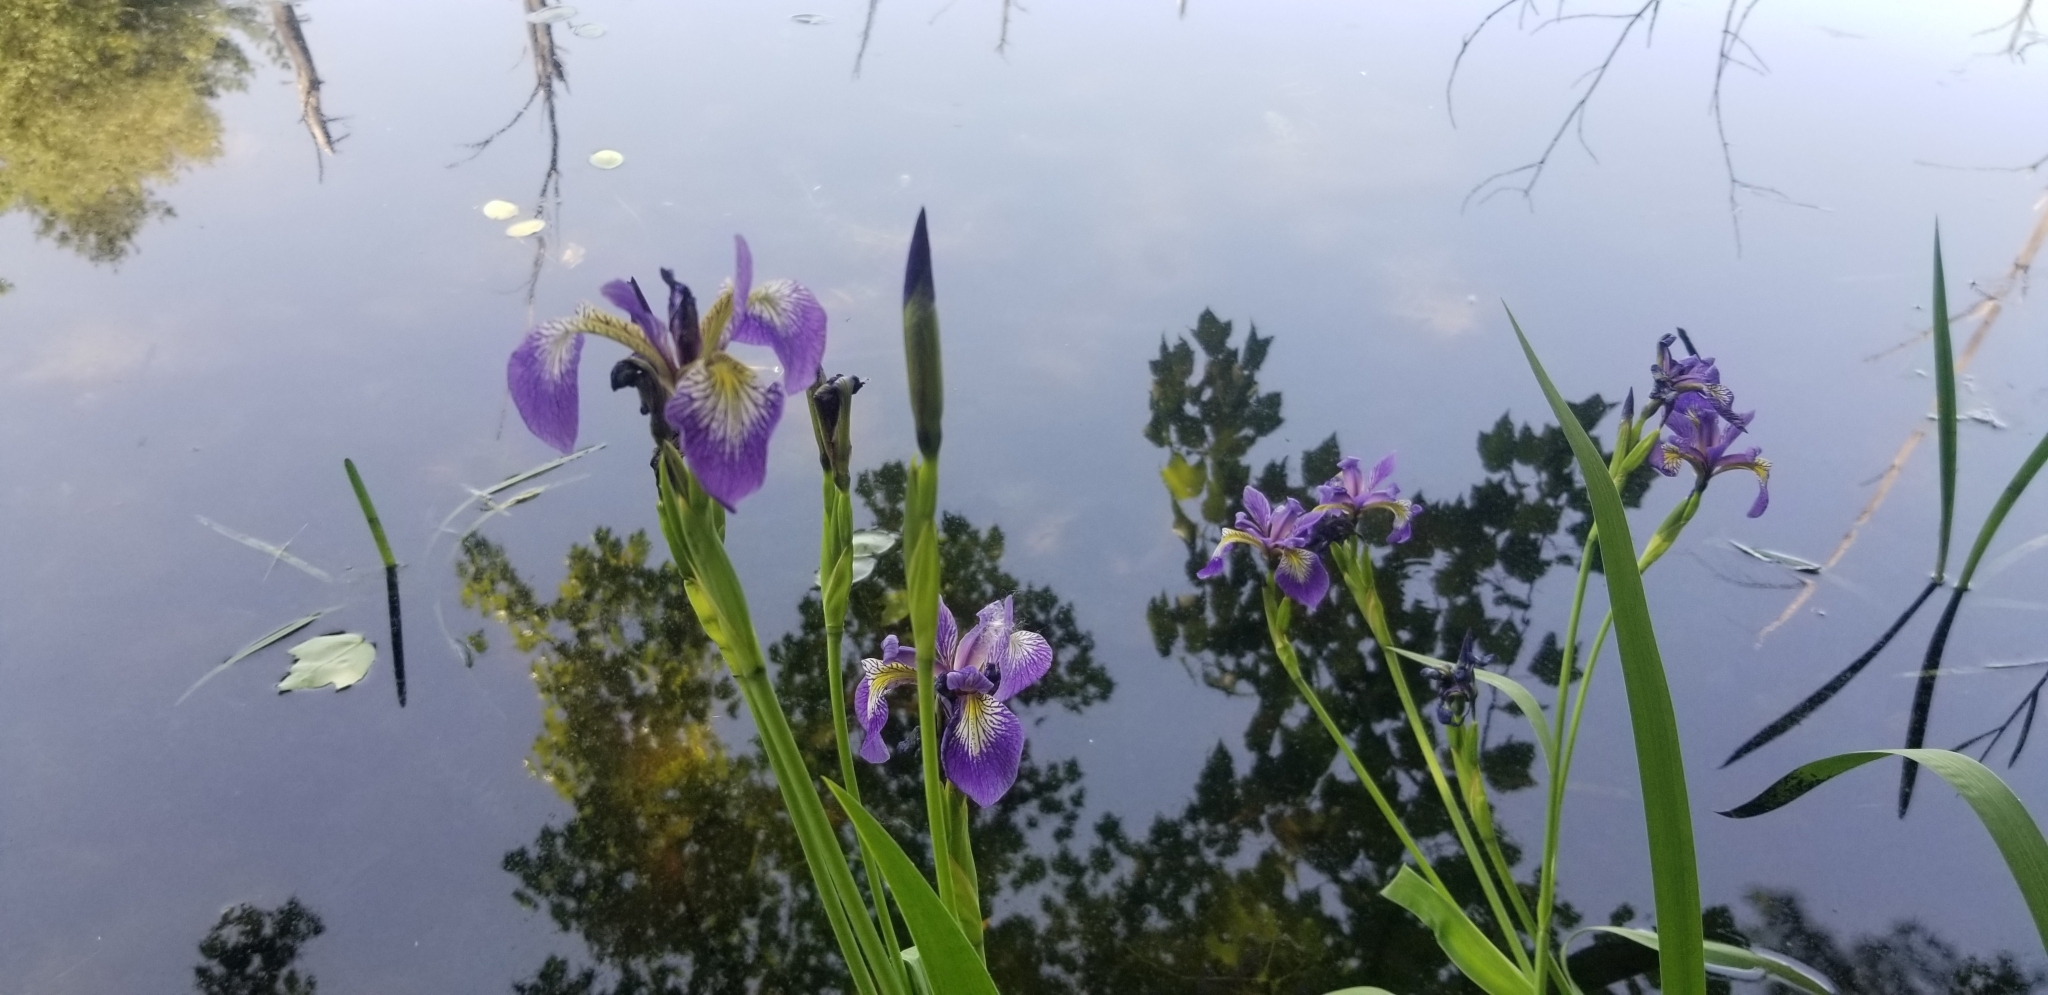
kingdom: Plantae
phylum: Tracheophyta
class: Liliopsida
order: Asparagales
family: Iridaceae
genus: Iris
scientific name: Iris versicolor
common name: Purple iris
